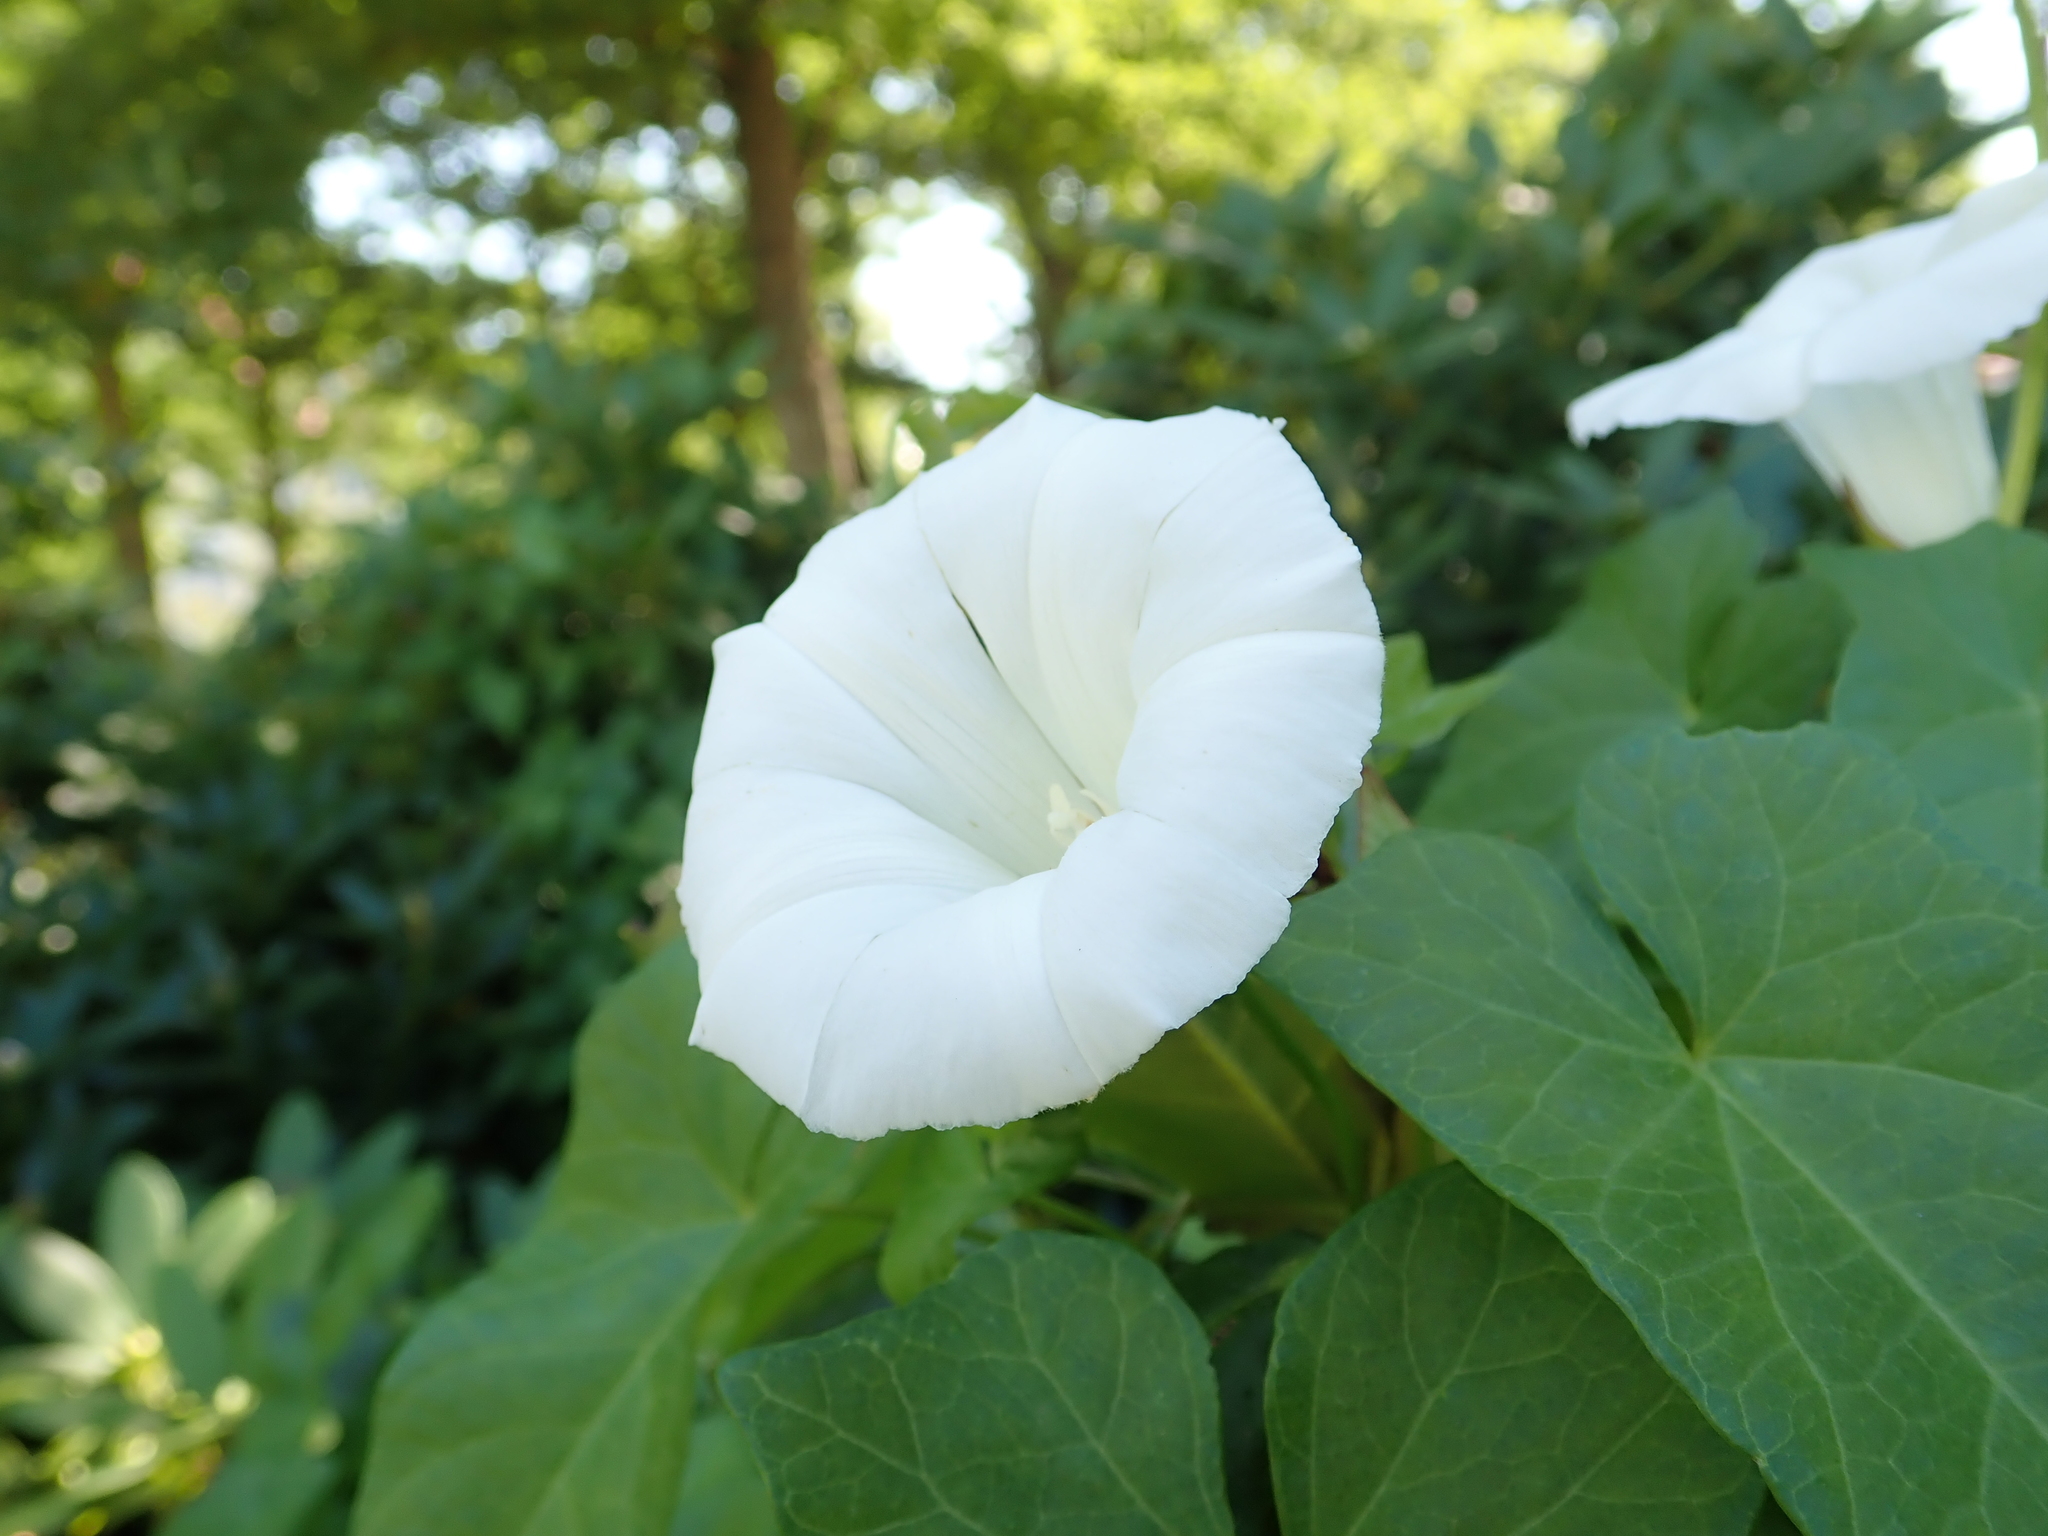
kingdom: Plantae
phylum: Tracheophyta
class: Magnoliopsida
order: Solanales
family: Convolvulaceae
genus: Calystegia
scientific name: Calystegia sepium
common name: Hedge bindweed
